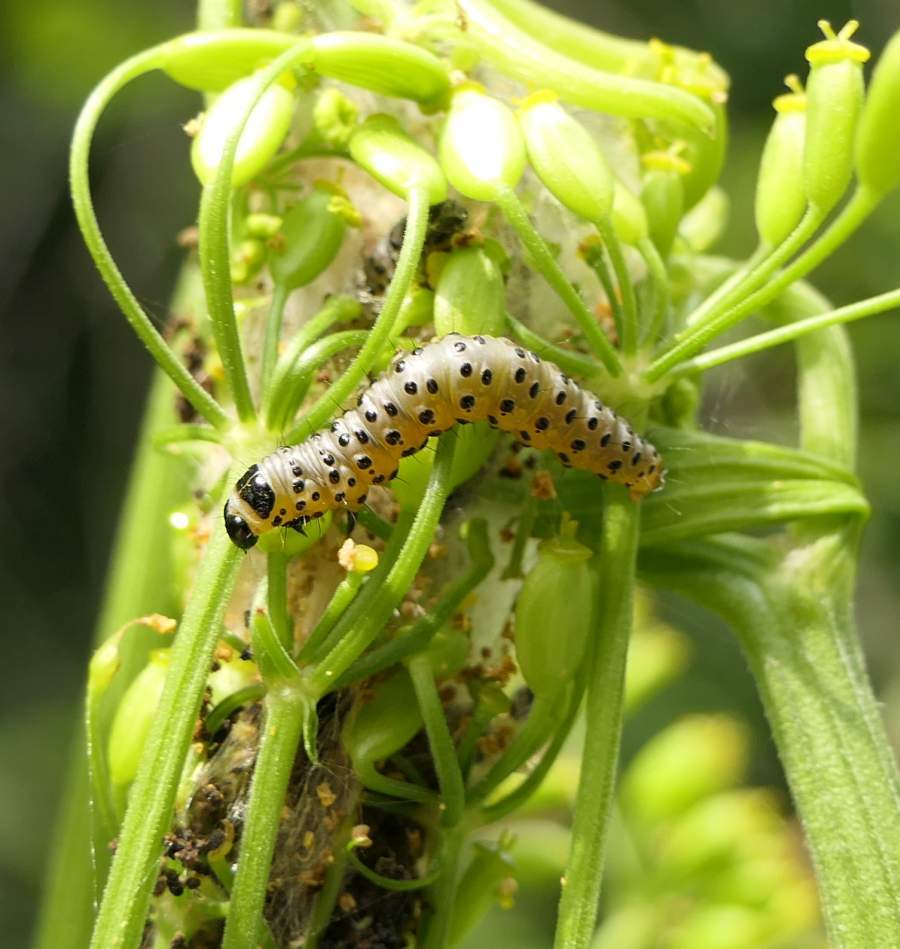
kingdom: Animalia
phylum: Arthropoda
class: Insecta
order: Lepidoptera
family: Depressariidae
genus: Depressaria
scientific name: Depressaria radiella
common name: Parsnip moth
